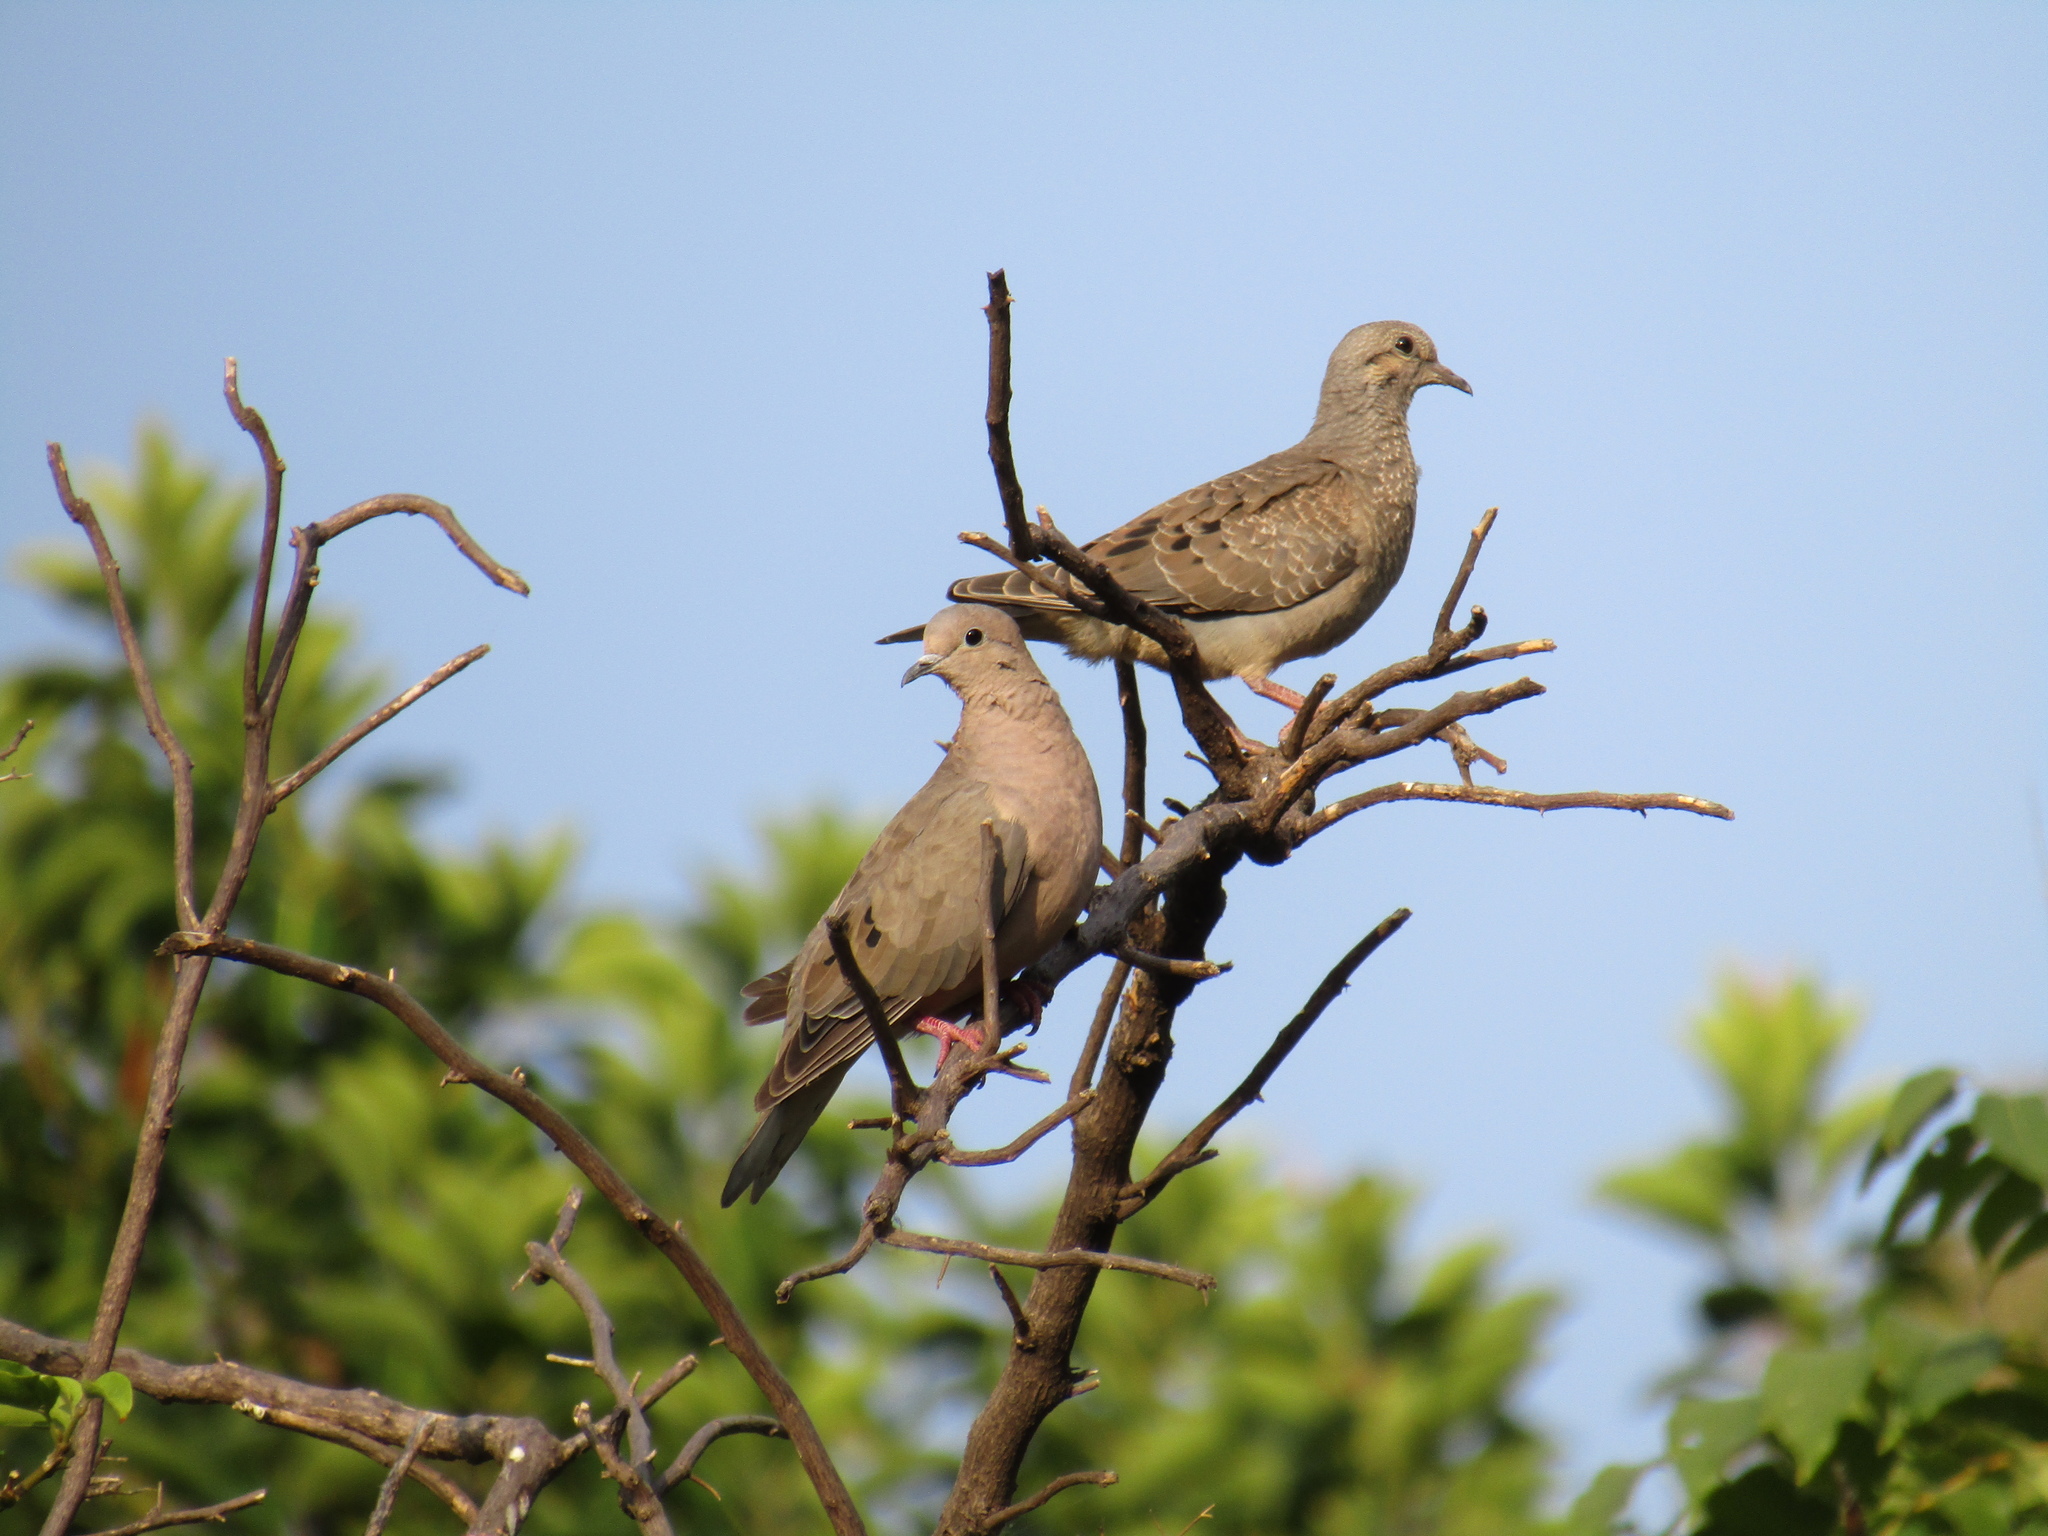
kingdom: Animalia
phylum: Chordata
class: Aves
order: Columbiformes
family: Columbidae
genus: Zenaida
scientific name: Zenaida auriculata
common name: Eared dove
